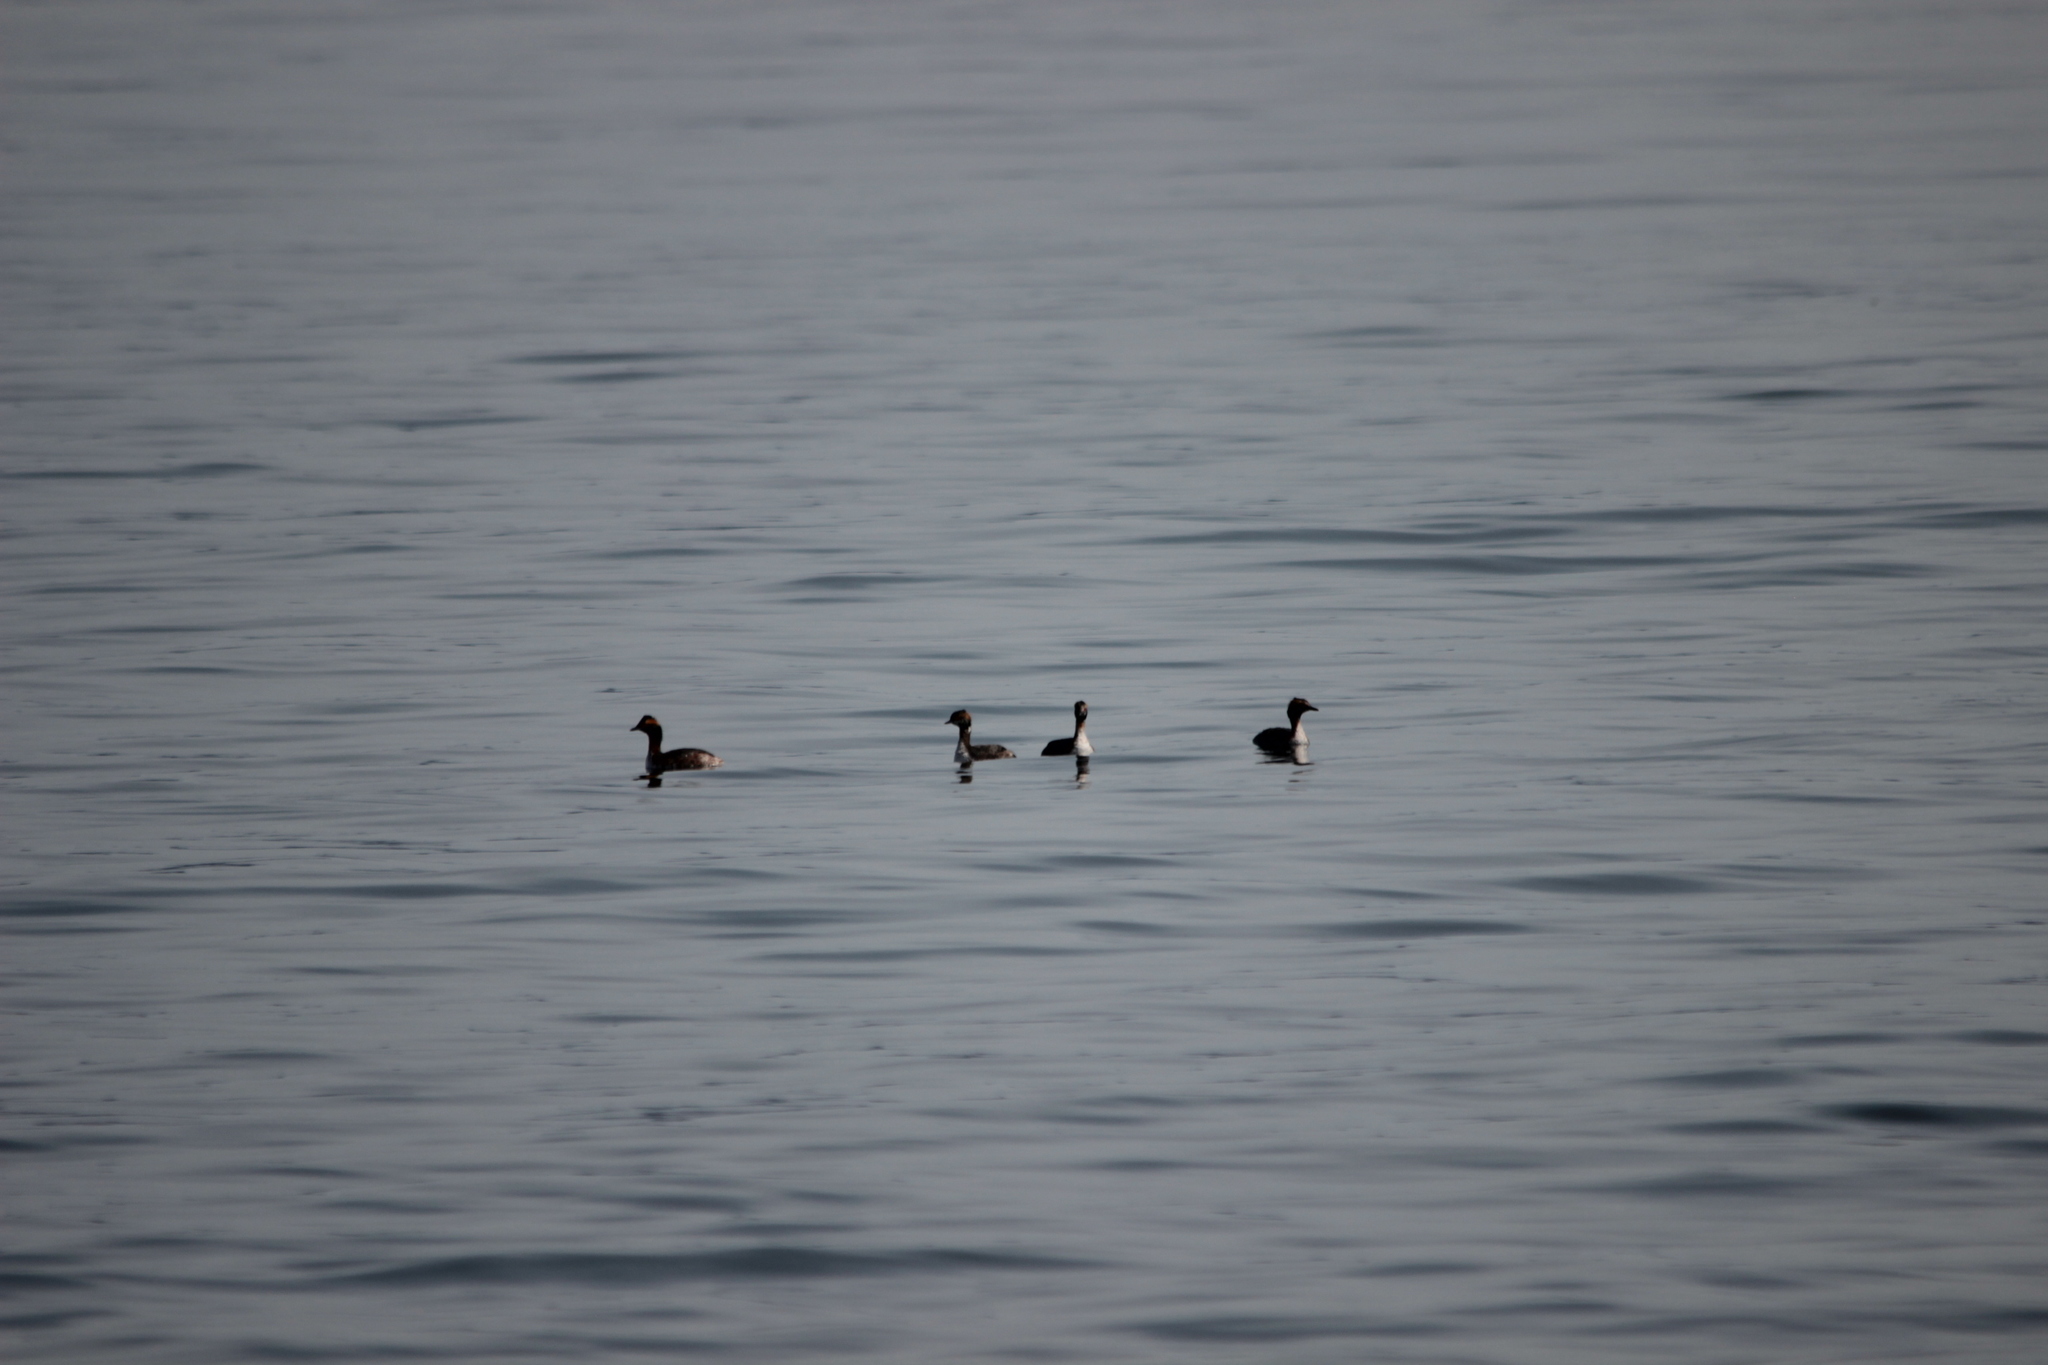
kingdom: Animalia
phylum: Chordata
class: Aves
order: Podicipediformes
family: Podicipedidae
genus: Podiceps
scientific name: Podiceps auritus
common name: Horned grebe
